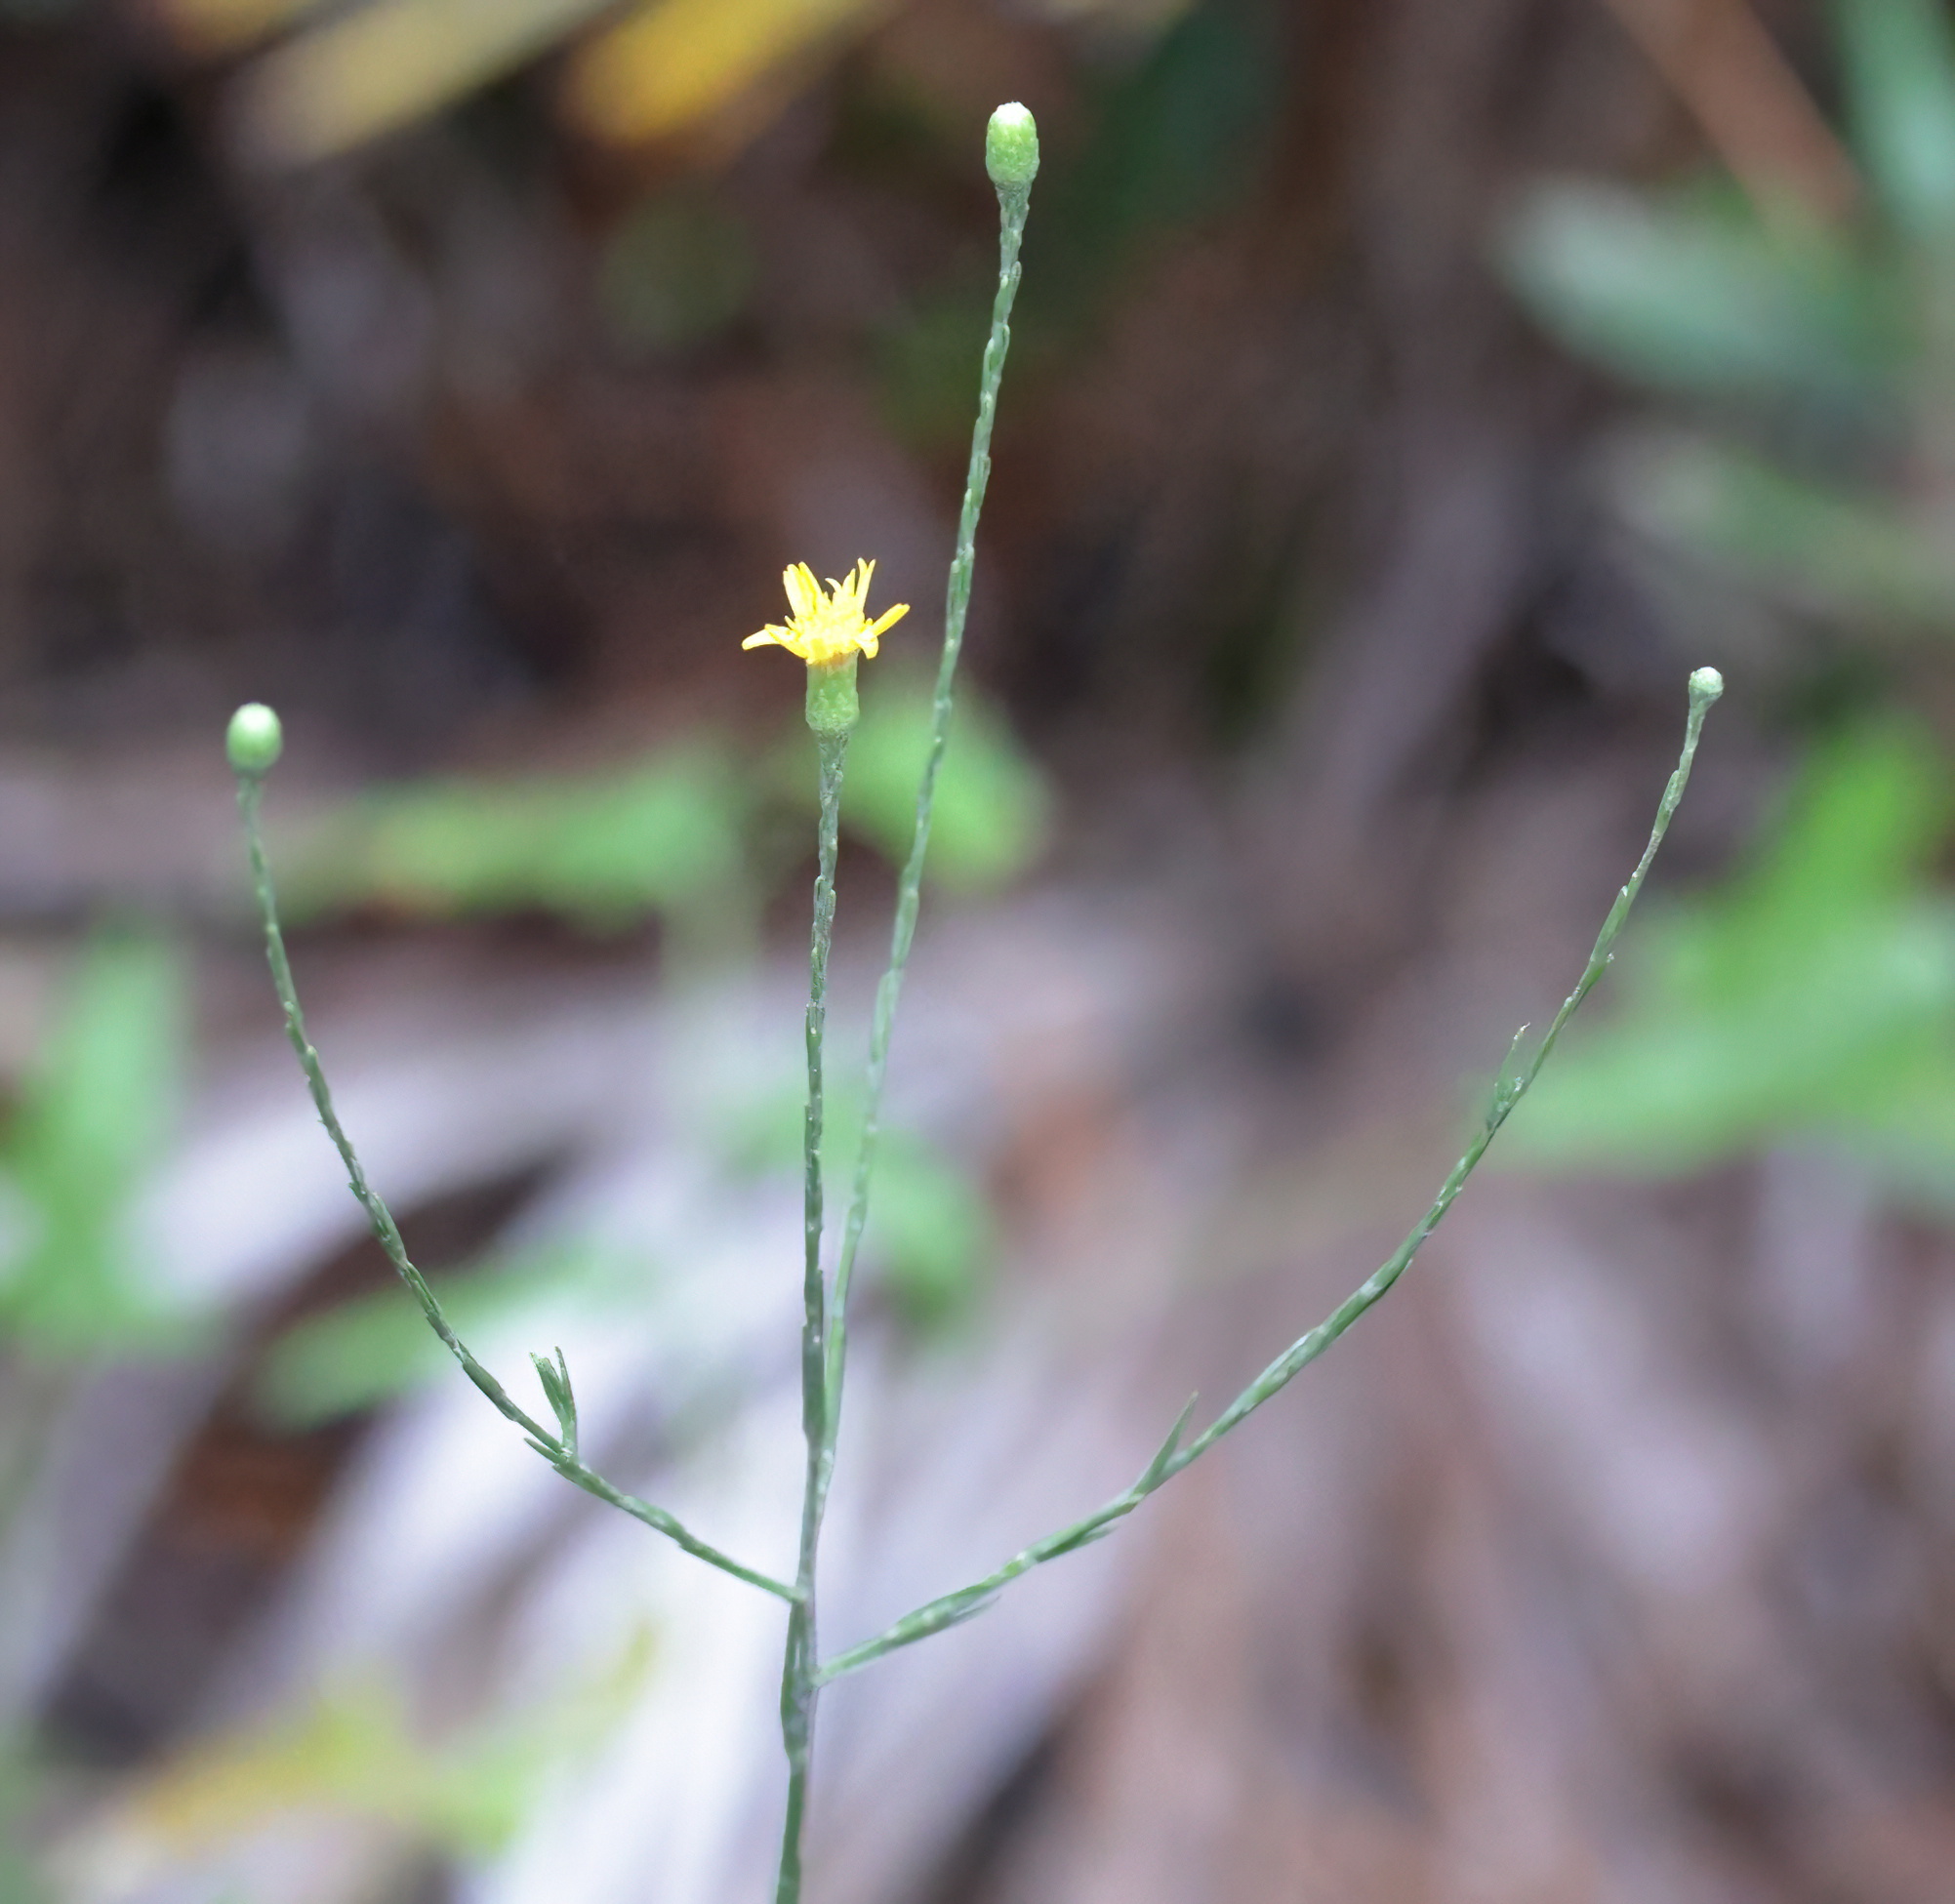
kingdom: Plantae
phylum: Tracheophyta
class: Magnoliopsida
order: Asterales
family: Asteraceae
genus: Pityopsis
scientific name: Pityopsis graminifolia
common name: Grass-leaf golden-aster
